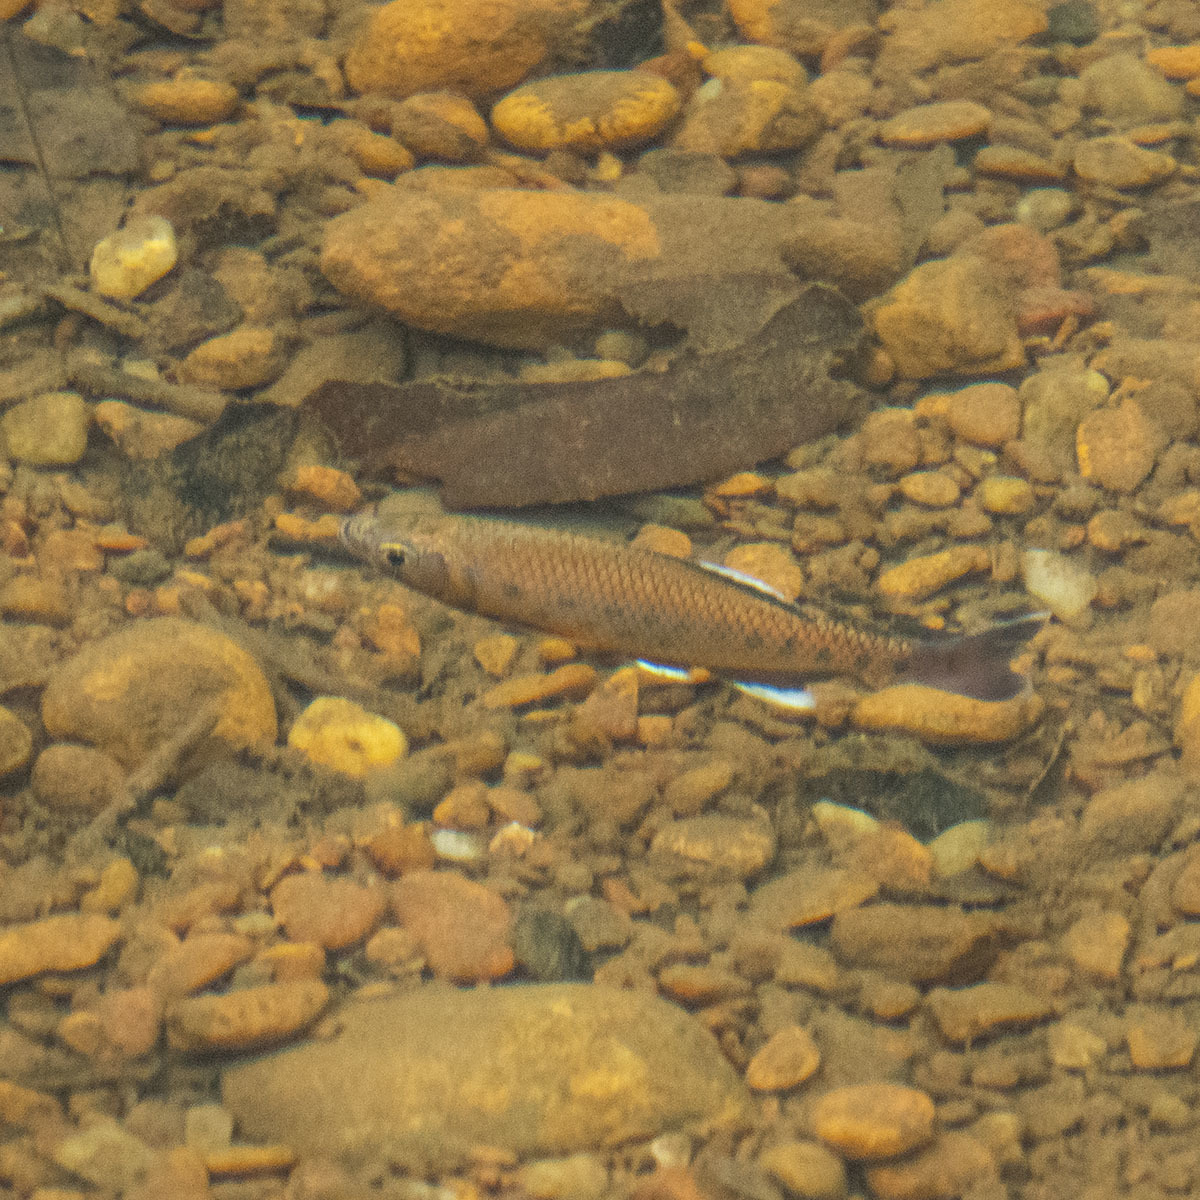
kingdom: Animalia
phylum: Chordata
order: Cypriniformes
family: Cyprinidae
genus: Barilius
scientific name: Barilius canarensis
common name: Jerdon's baril
